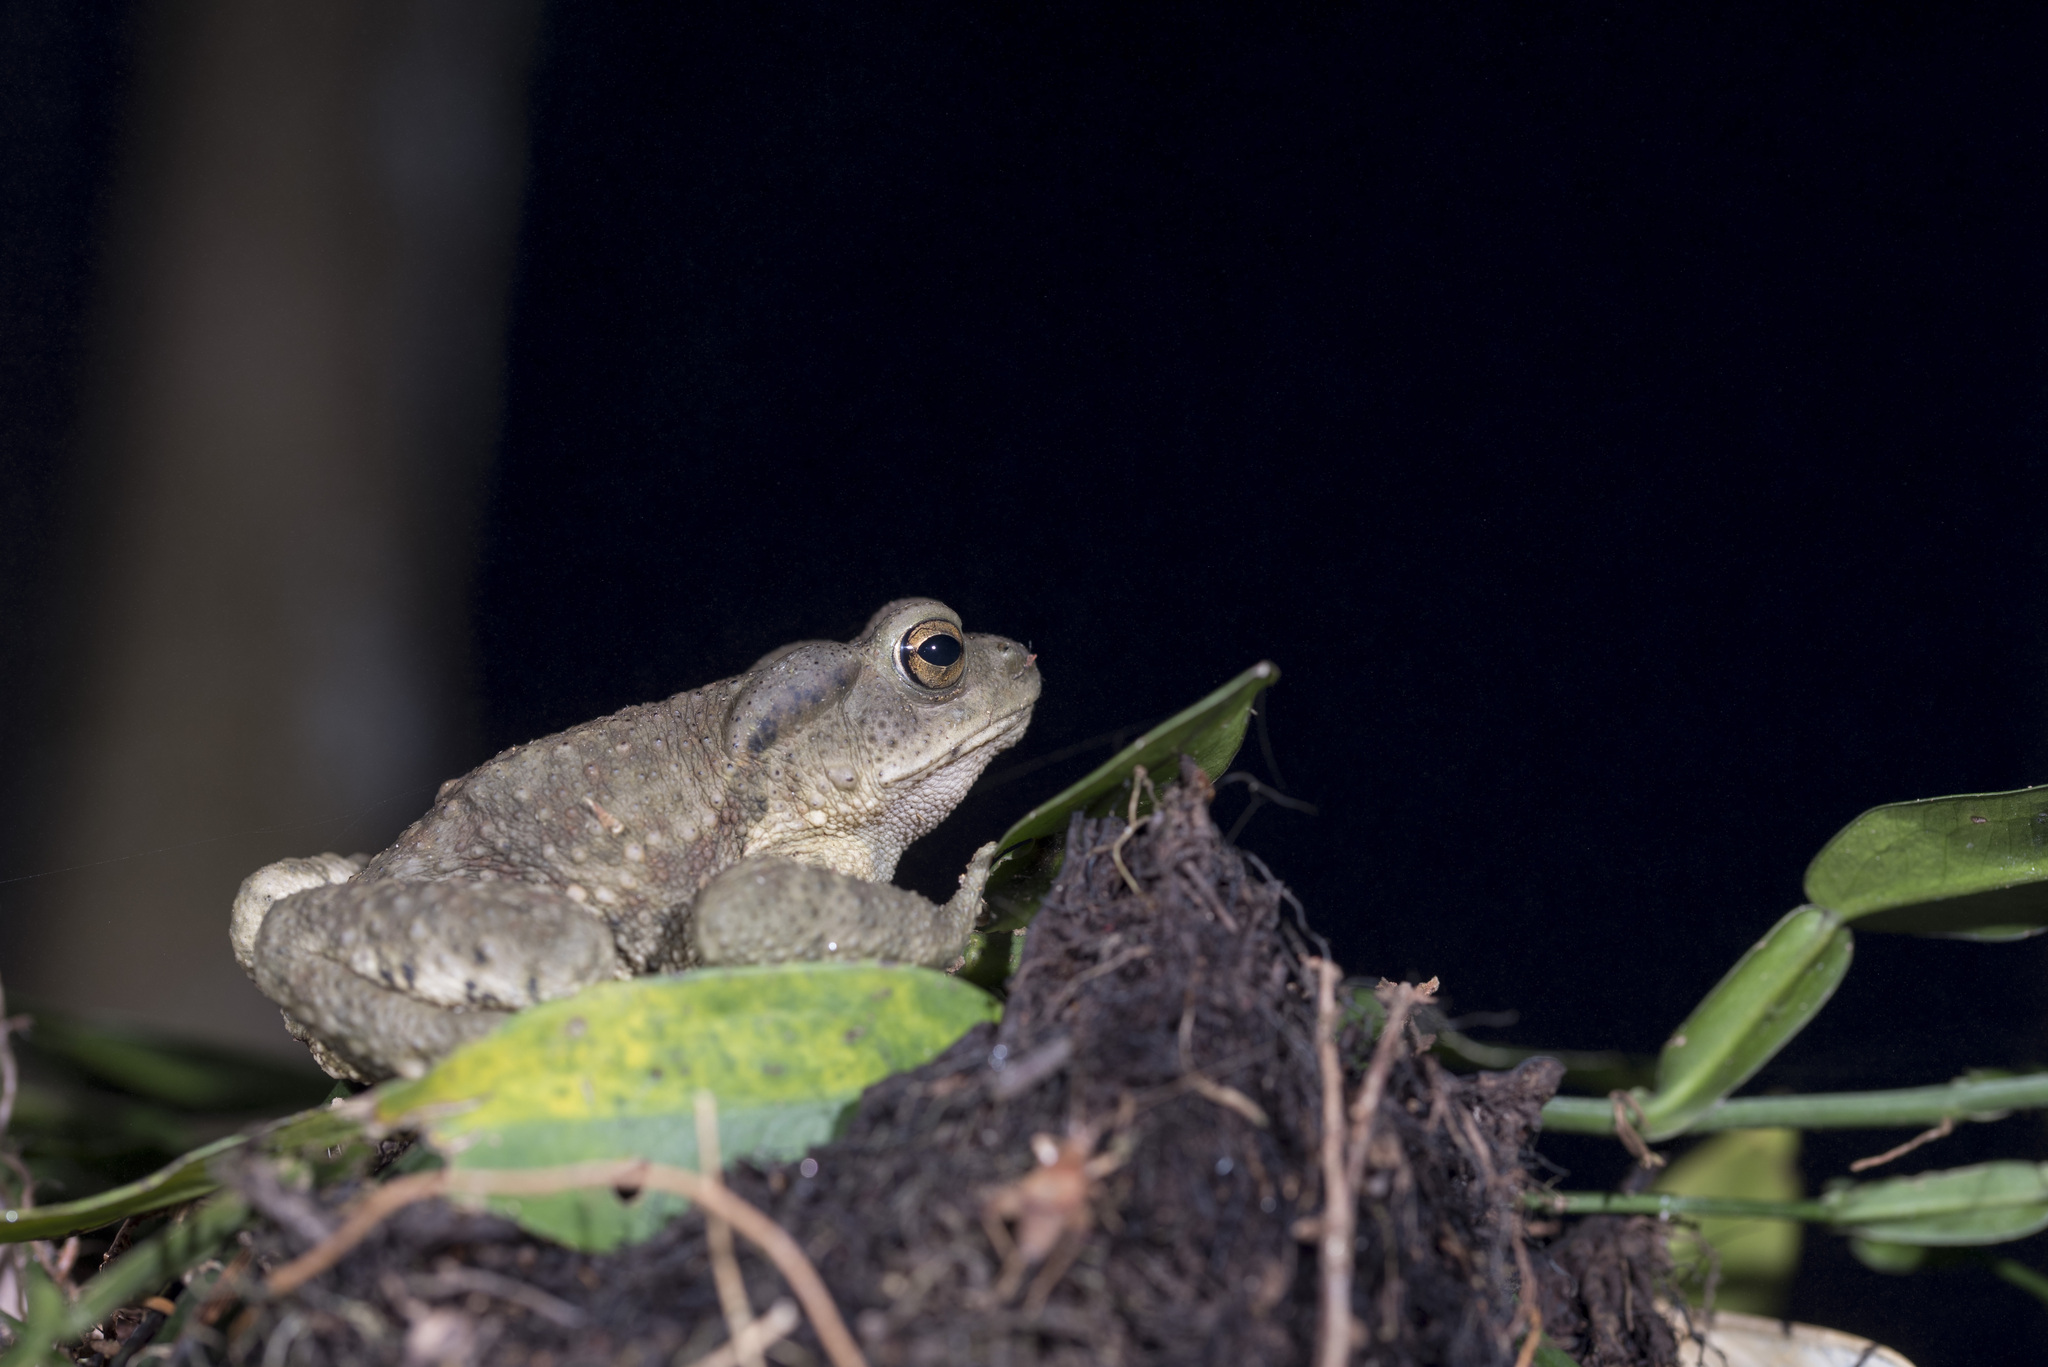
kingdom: Animalia
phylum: Chordata
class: Amphibia
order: Anura
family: Bufonidae
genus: Bufo
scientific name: Bufo bankorensis
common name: Bankor toad
